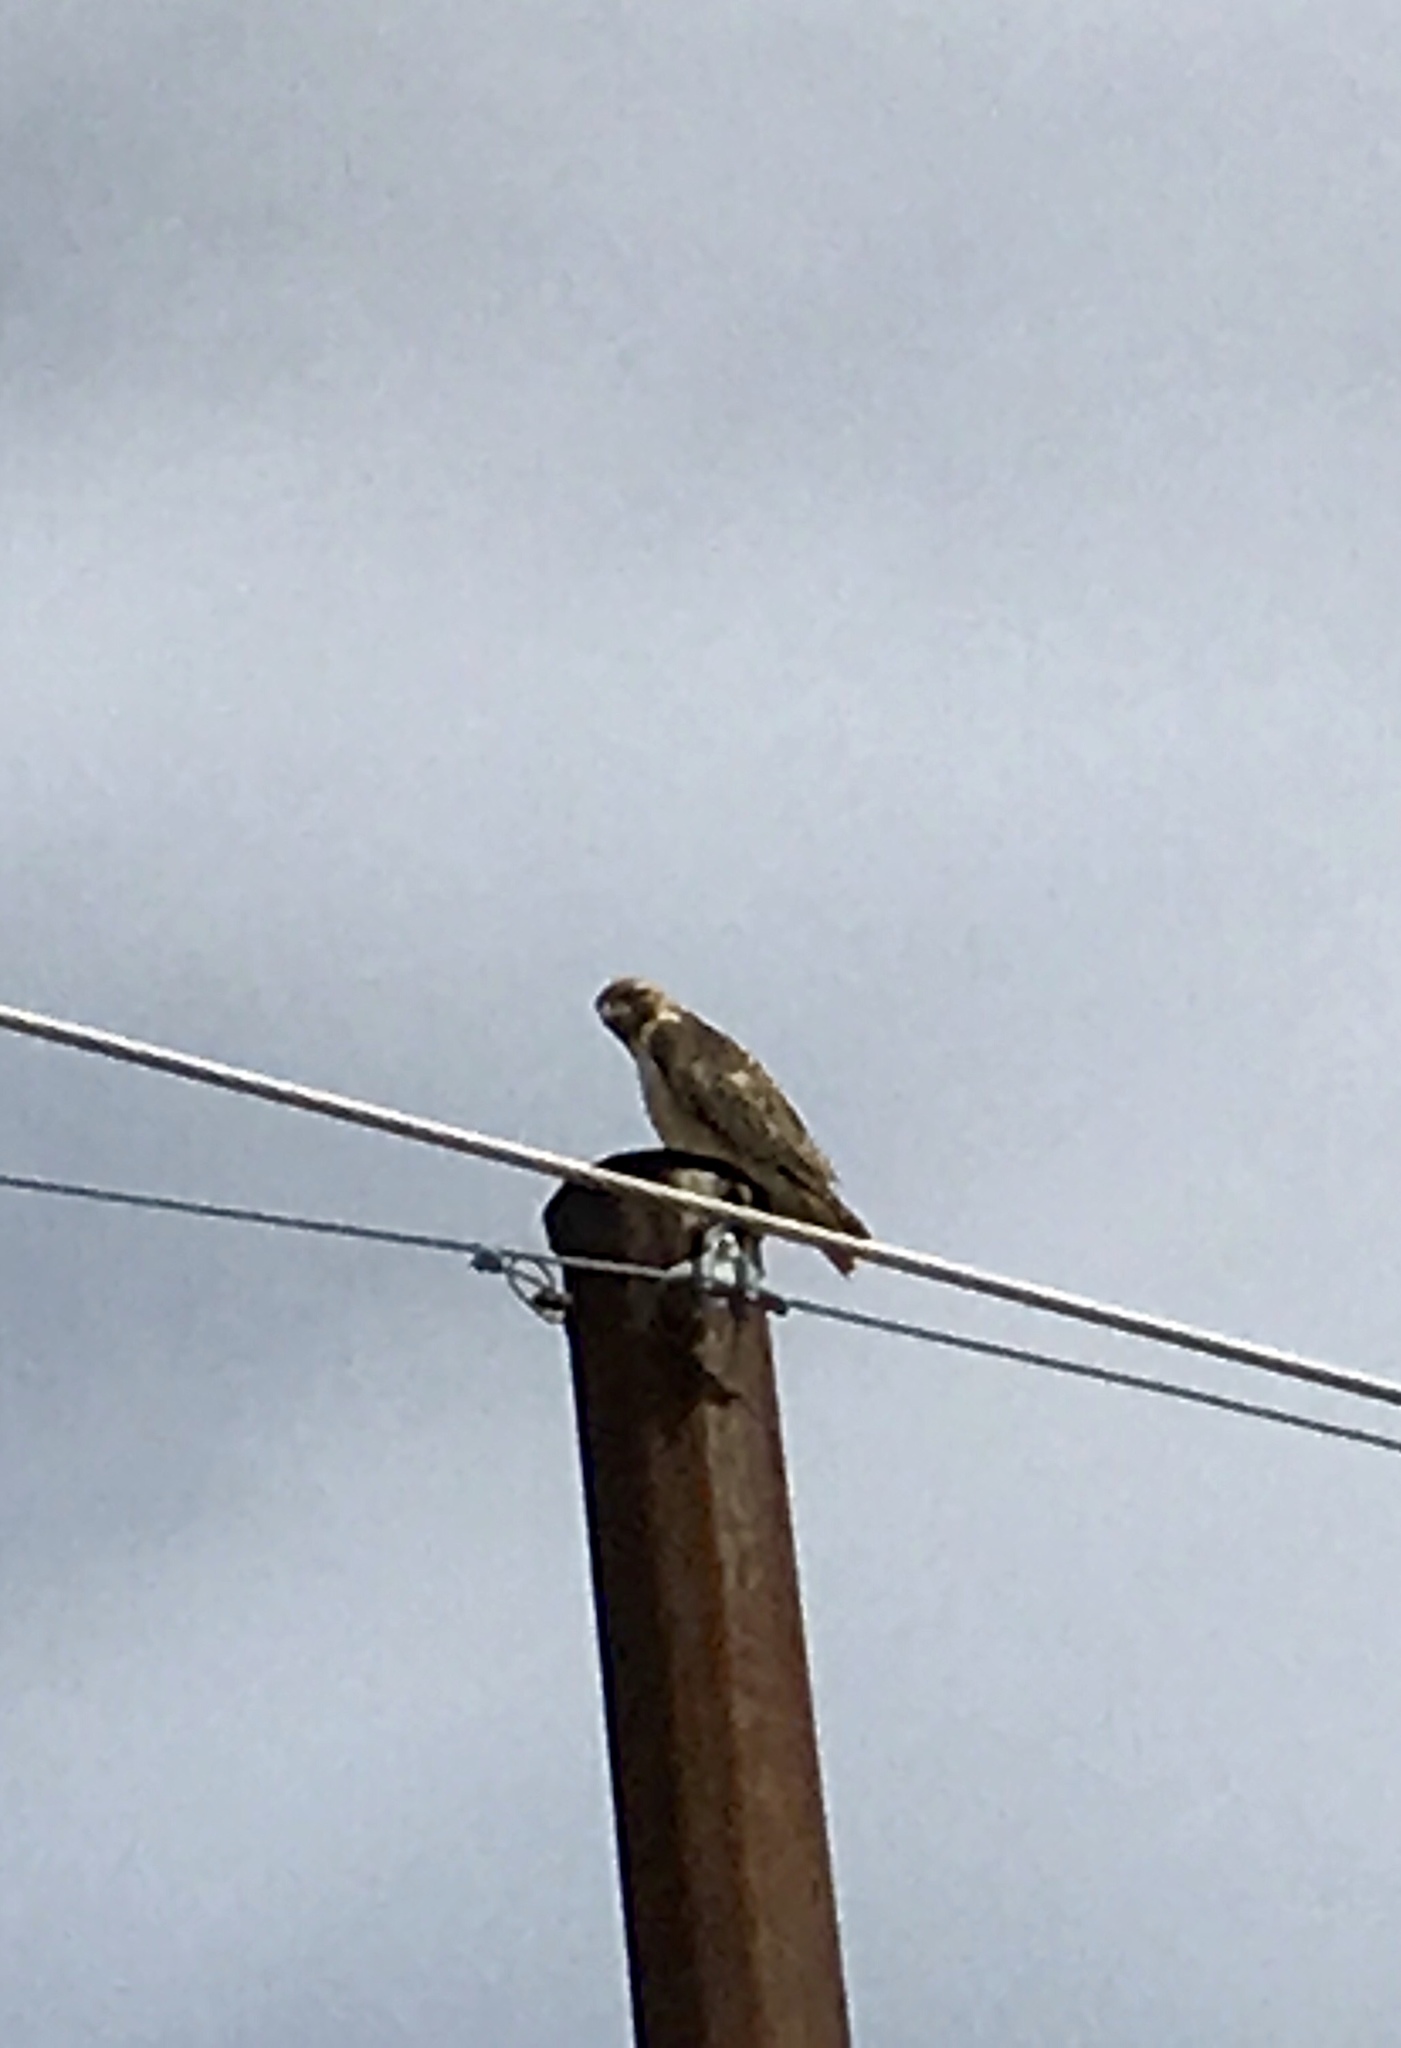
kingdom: Animalia
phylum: Chordata
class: Aves
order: Accipitriformes
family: Accipitridae
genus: Buteo
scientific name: Buteo jamaicensis
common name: Red-tailed hawk
